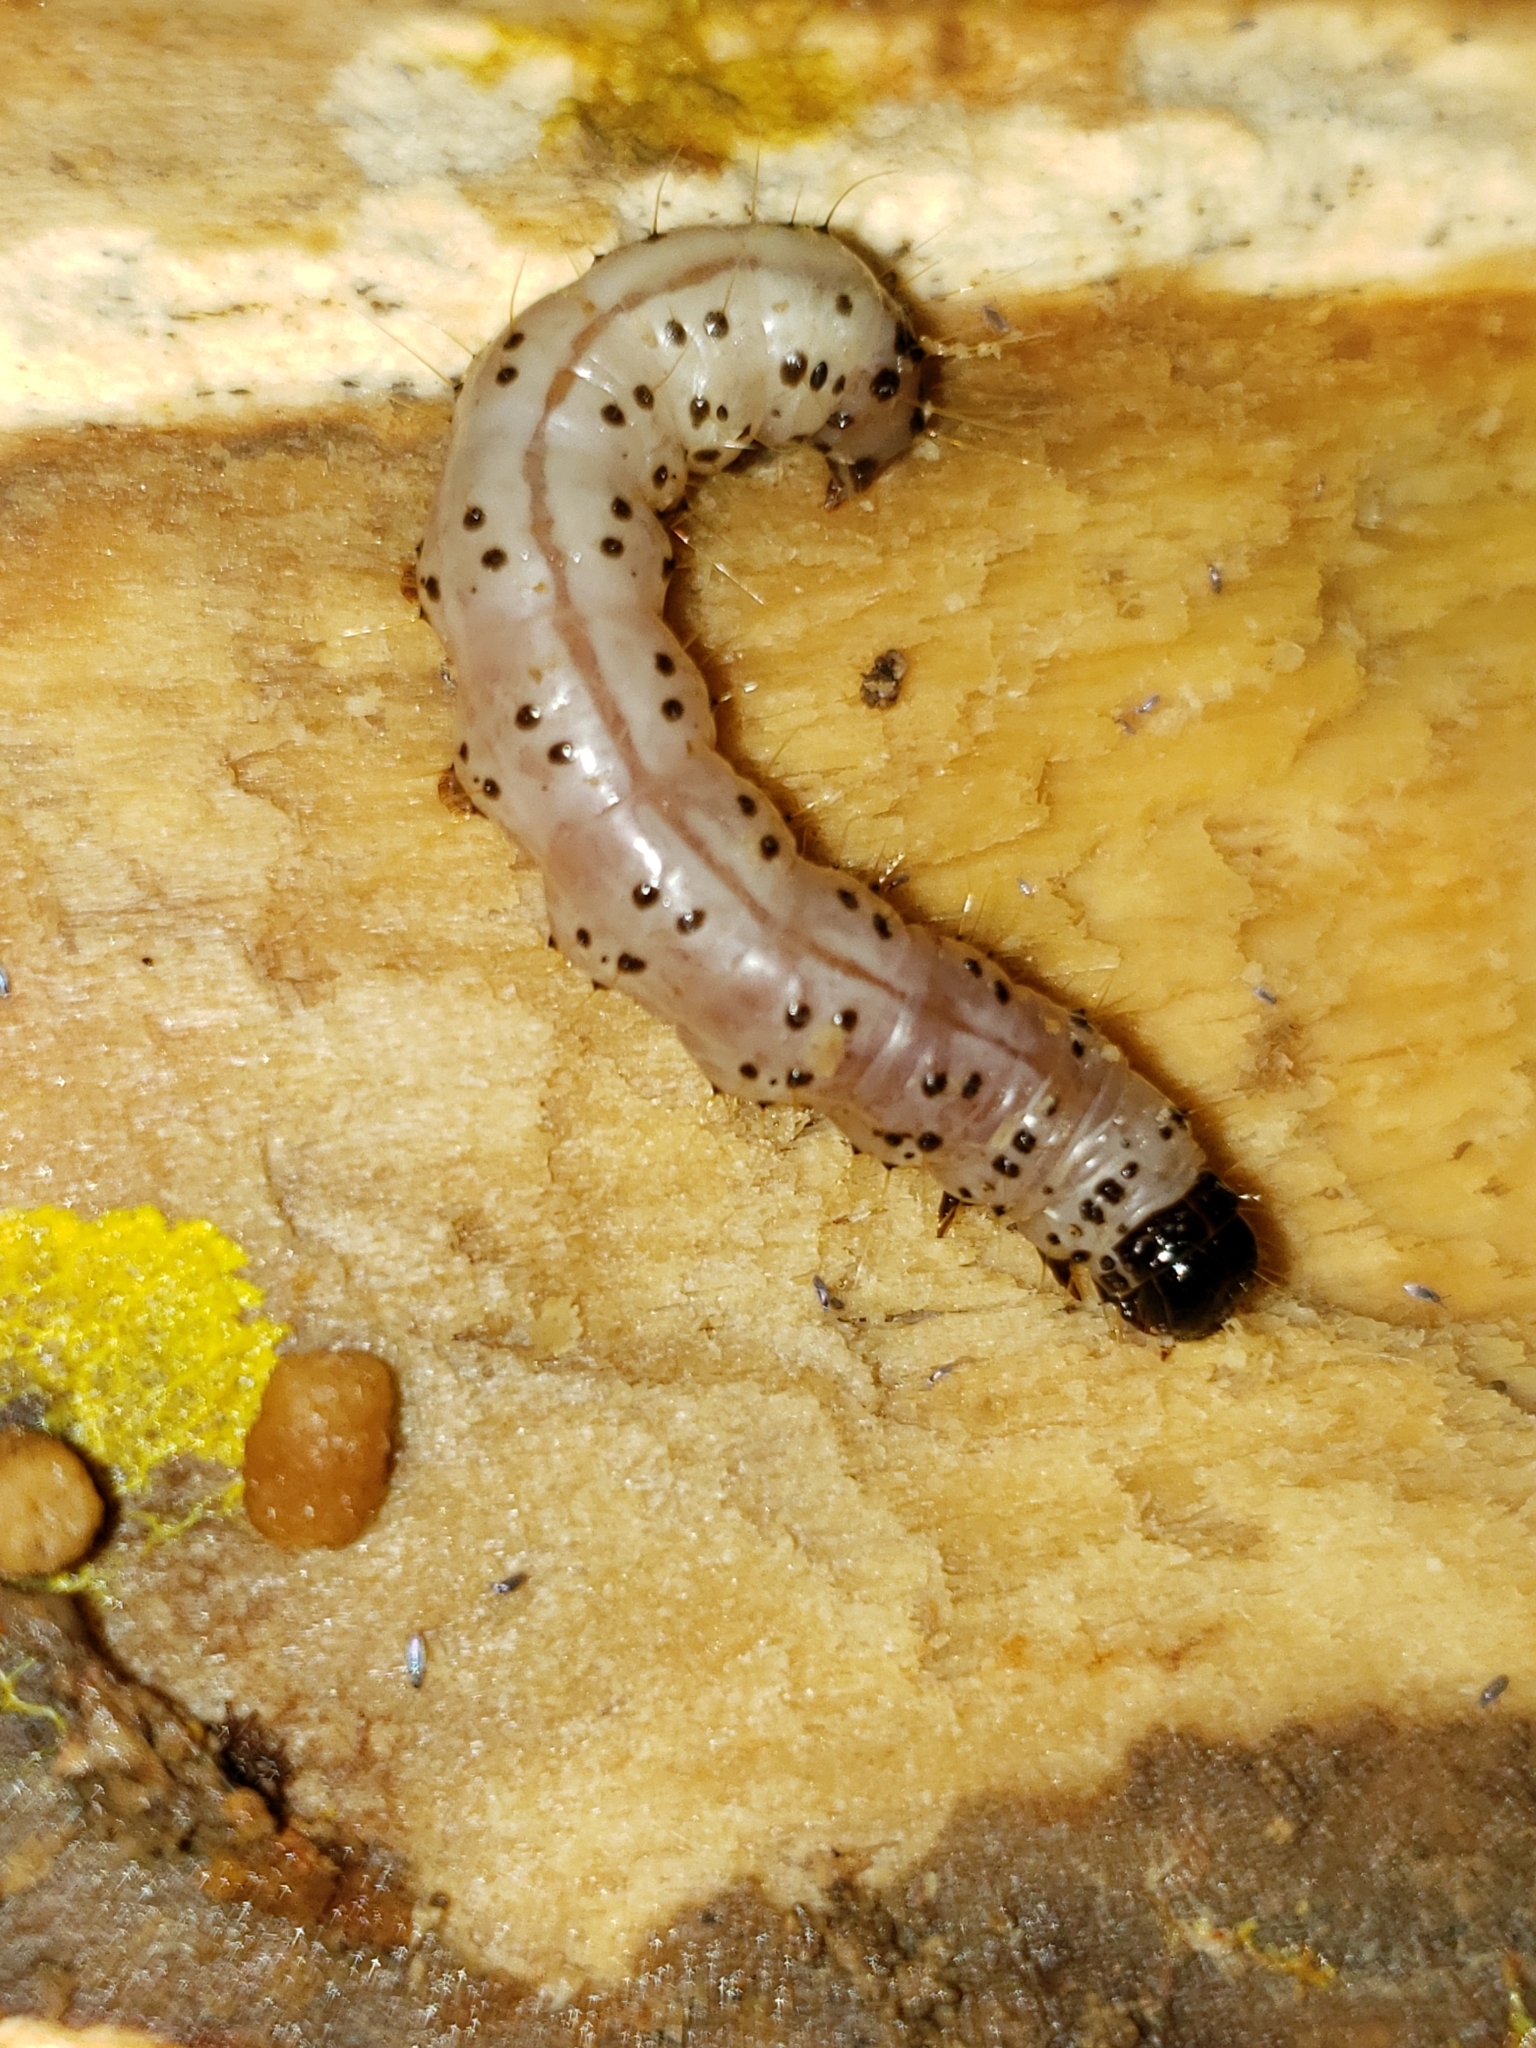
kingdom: Animalia
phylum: Arthropoda
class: Insecta
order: Lepidoptera
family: Erebidae
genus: Scolecocampa
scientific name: Scolecocampa liburna
